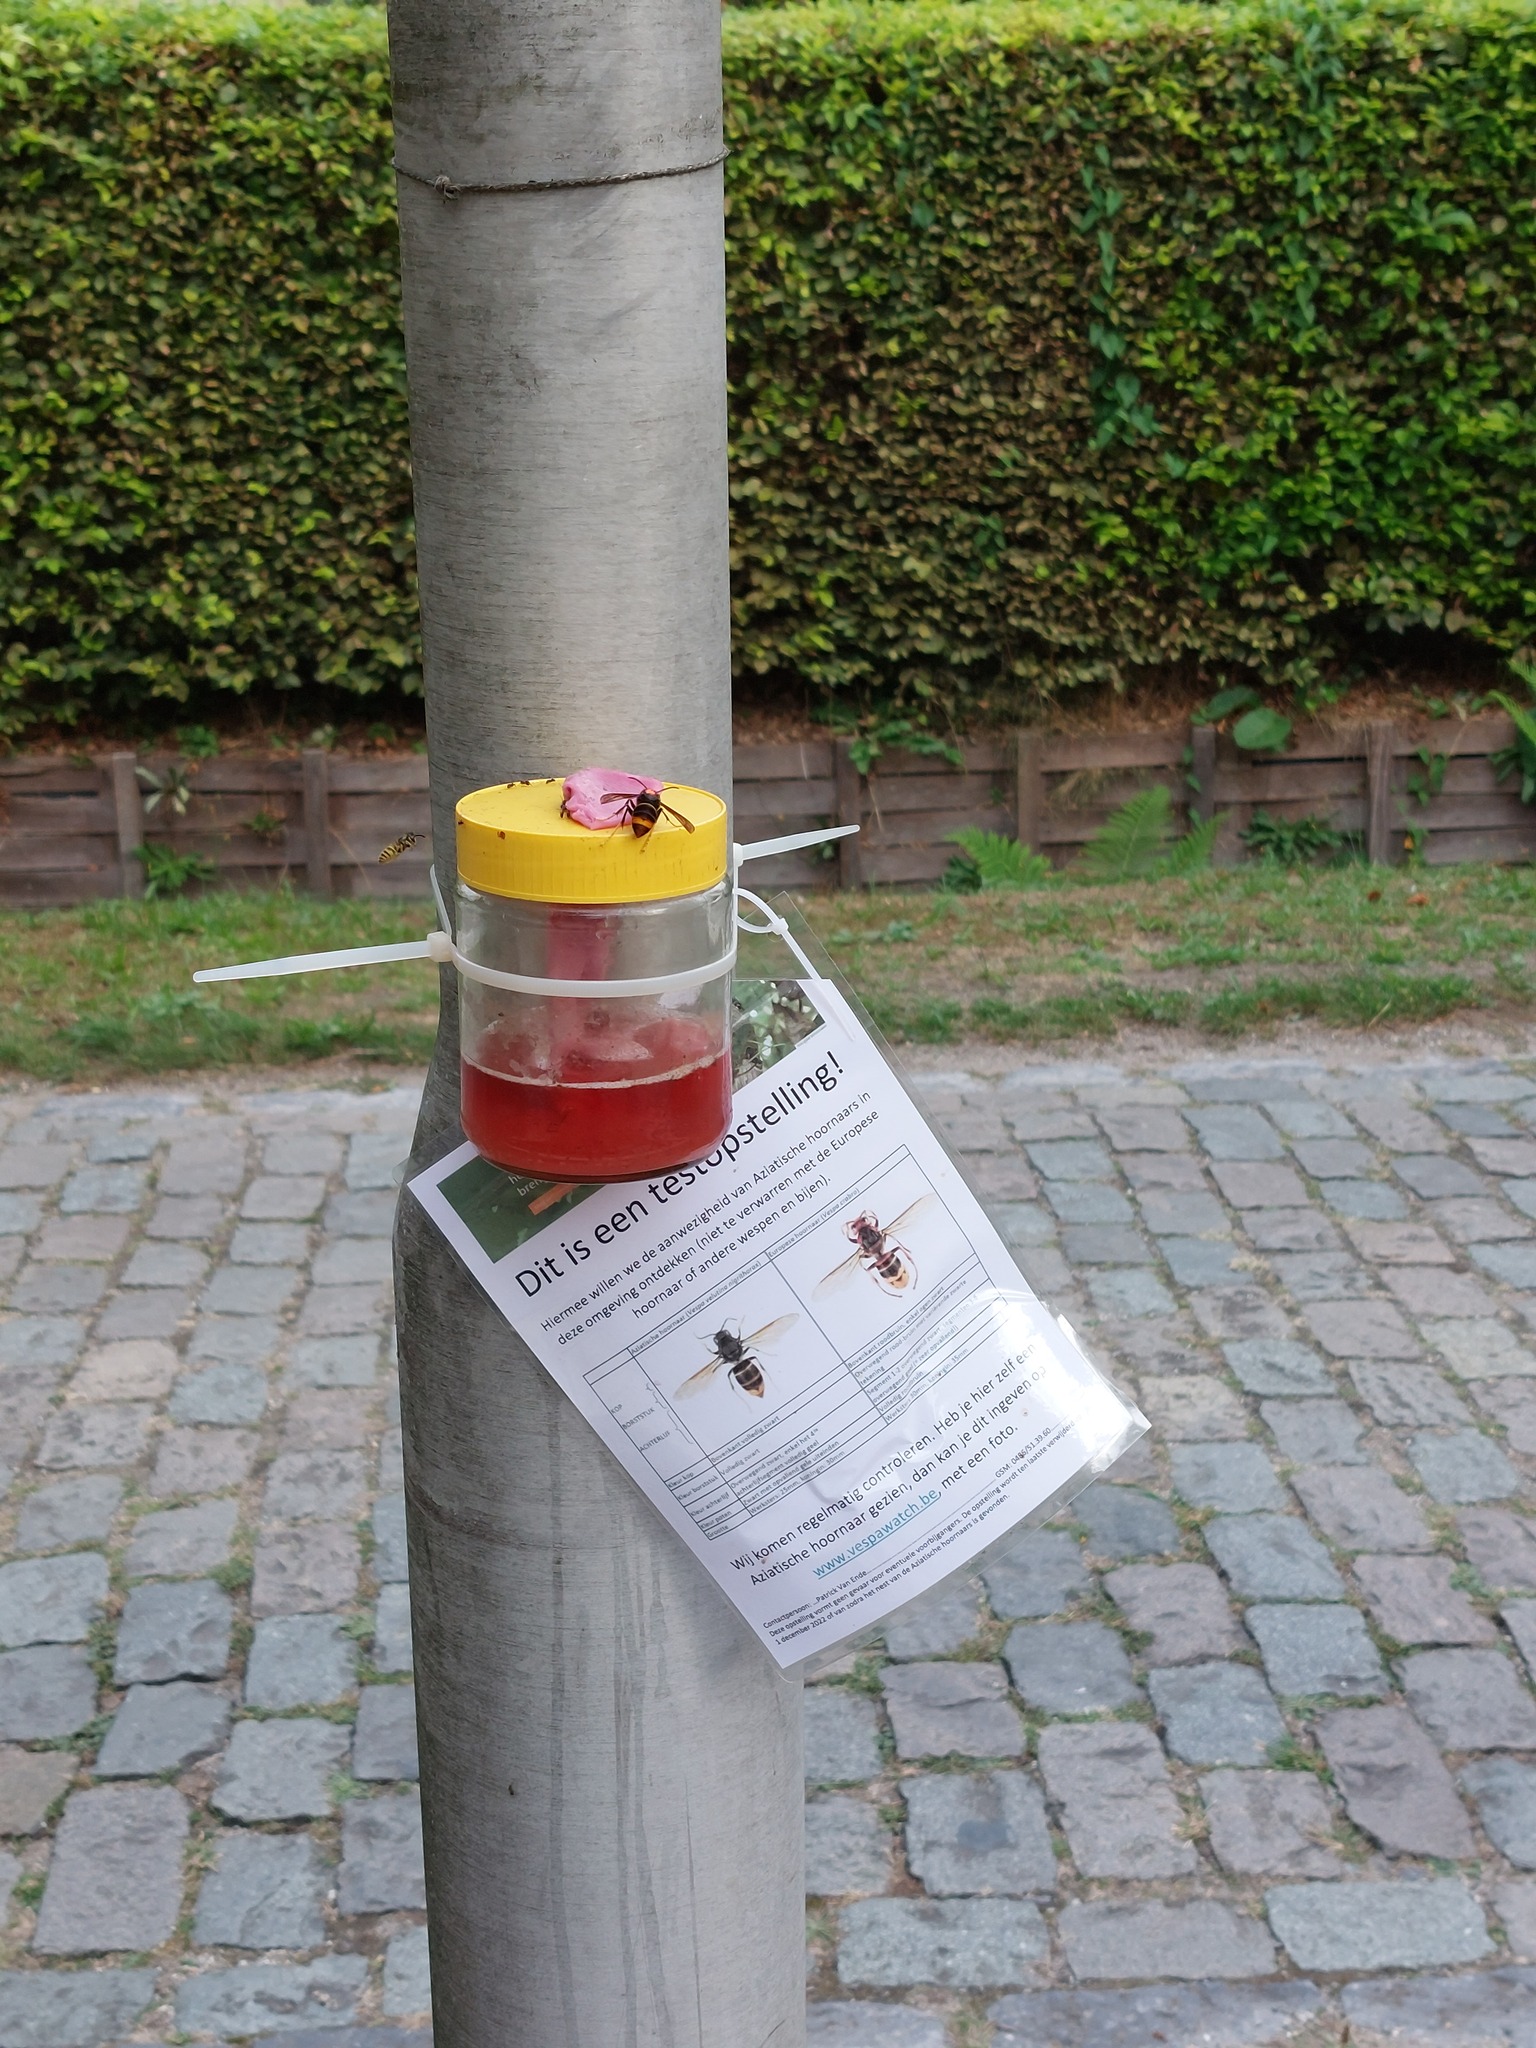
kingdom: Animalia
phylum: Arthropoda
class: Insecta
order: Hymenoptera
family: Vespidae
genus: Vespa
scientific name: Vespa velutina
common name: Asian hornet
